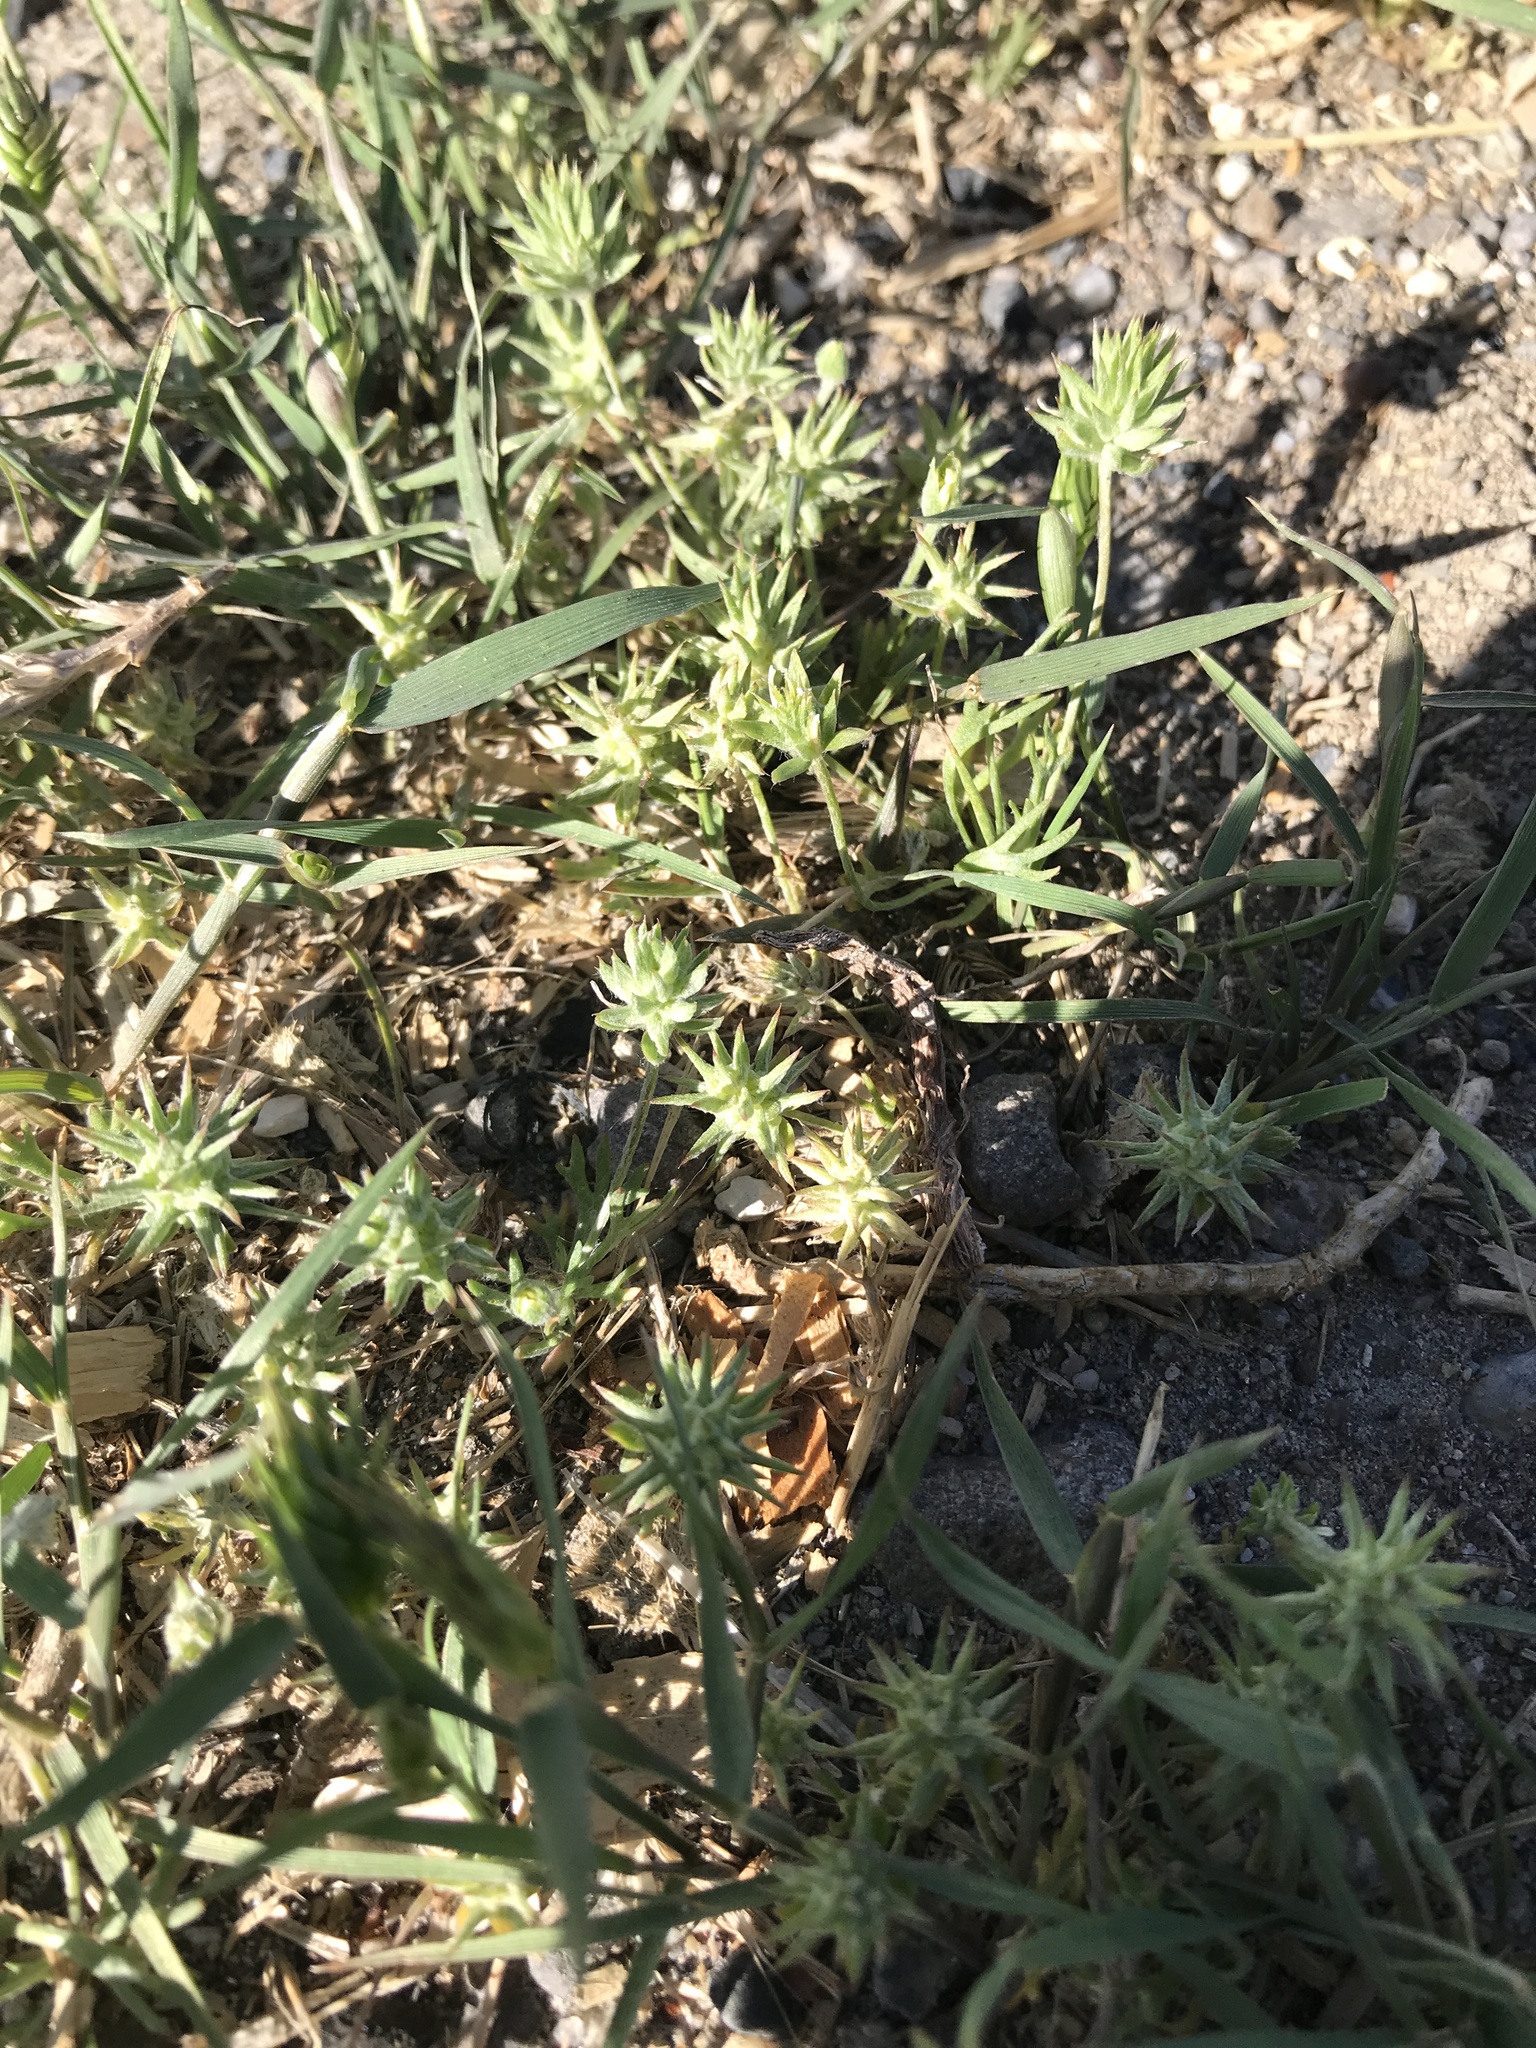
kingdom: Plantae
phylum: Tracheophyta
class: Magnoliopsida
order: Ranunculales
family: Ranunculaceae
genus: Ceratocephala
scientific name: Ceratocephala orthoceras
